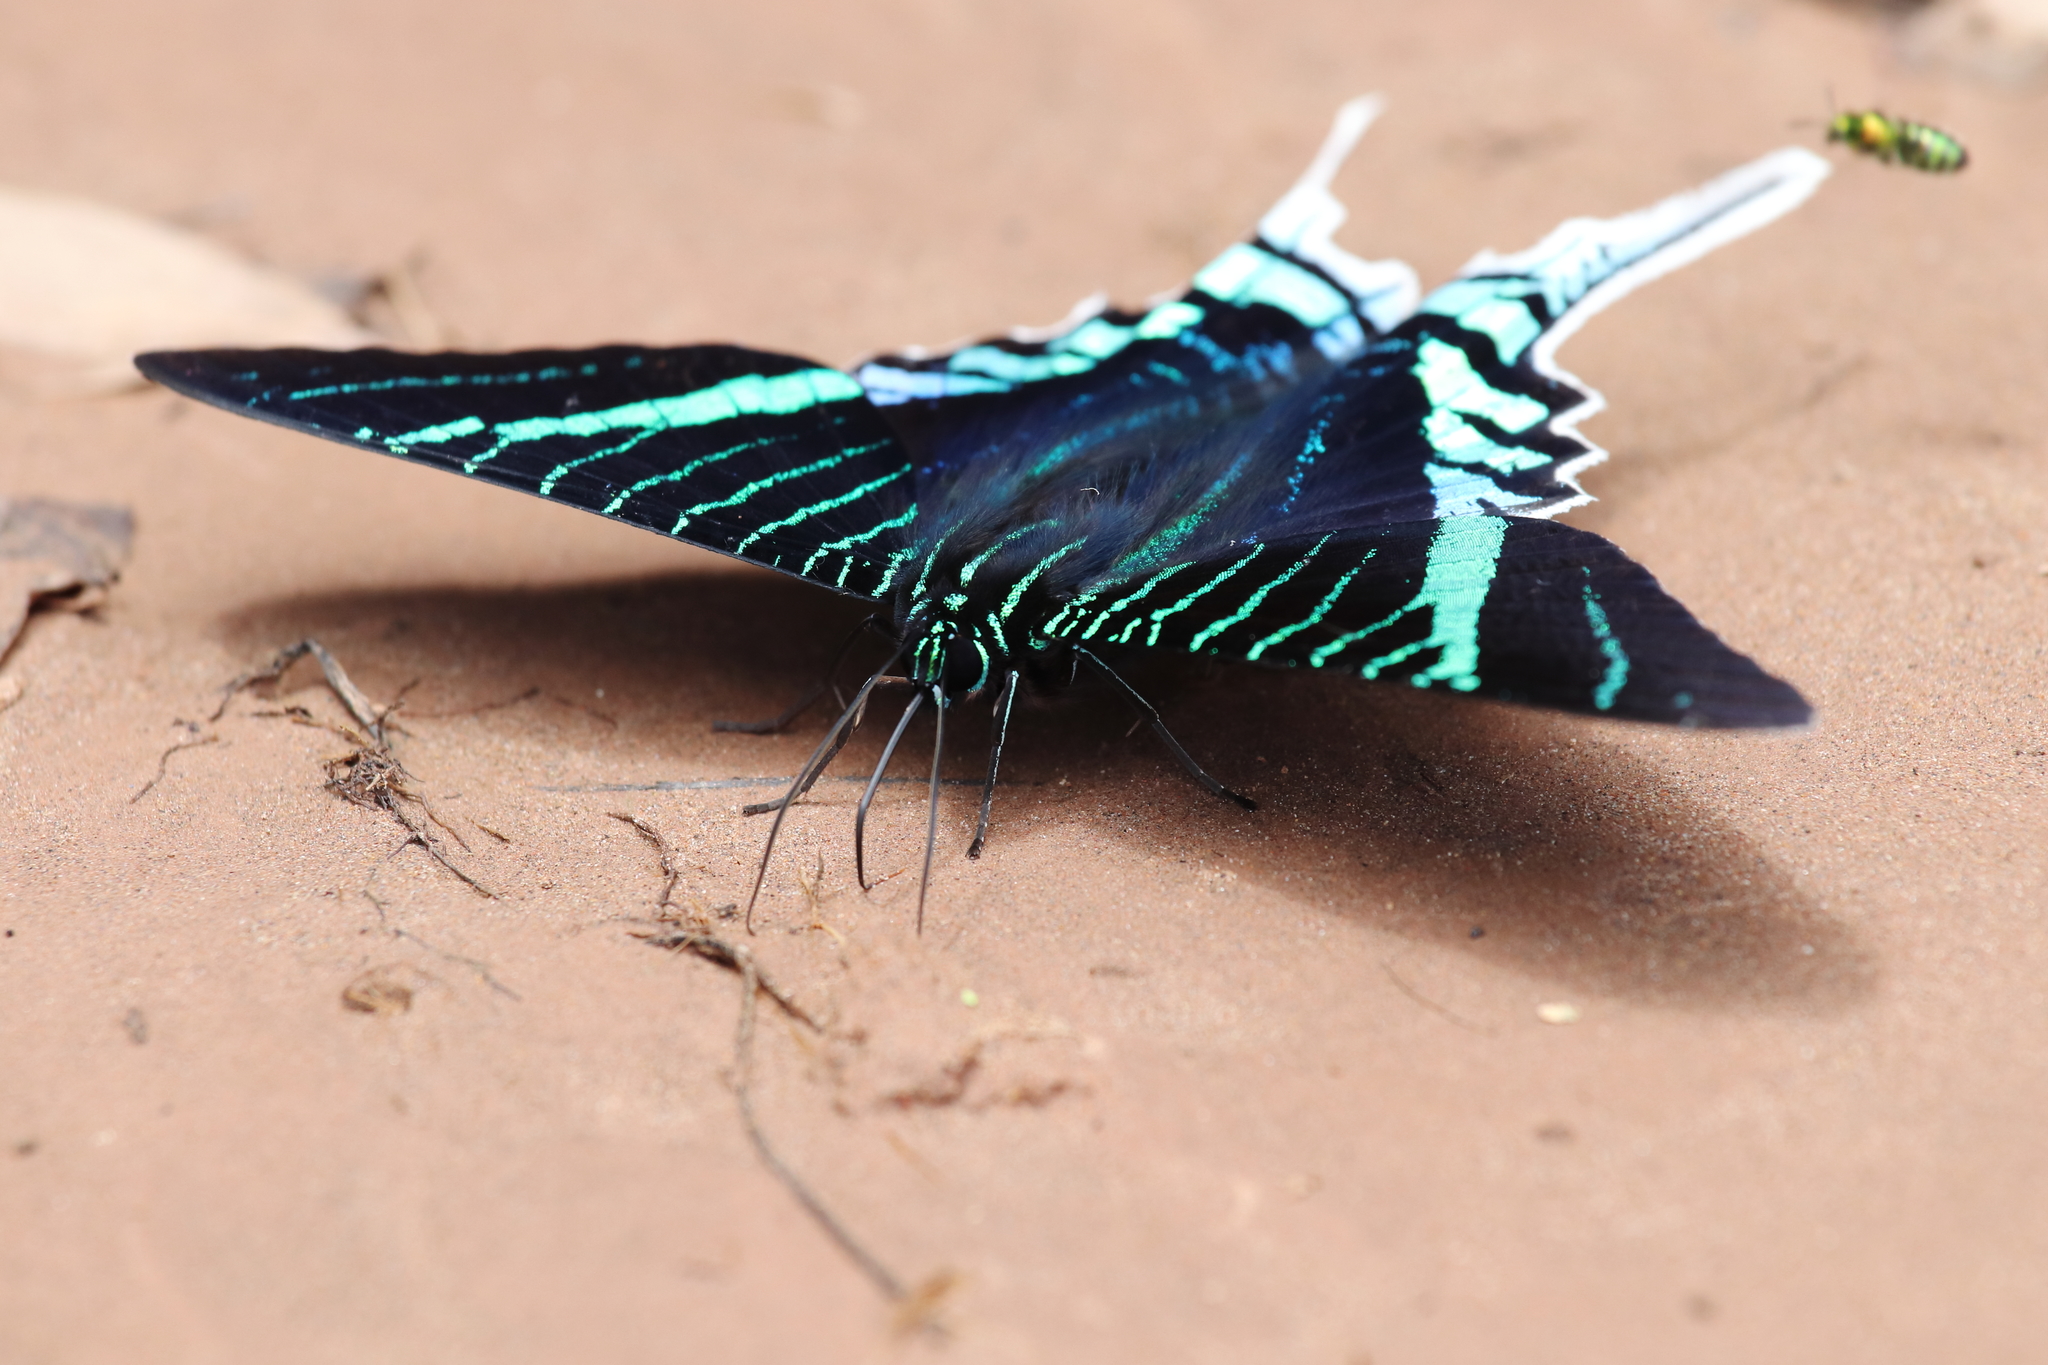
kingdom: Animalia
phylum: Arthropoda
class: Insecta
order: Lepidoptera
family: Uraniidae
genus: Urania
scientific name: Urania leilus
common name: Peacock moth
